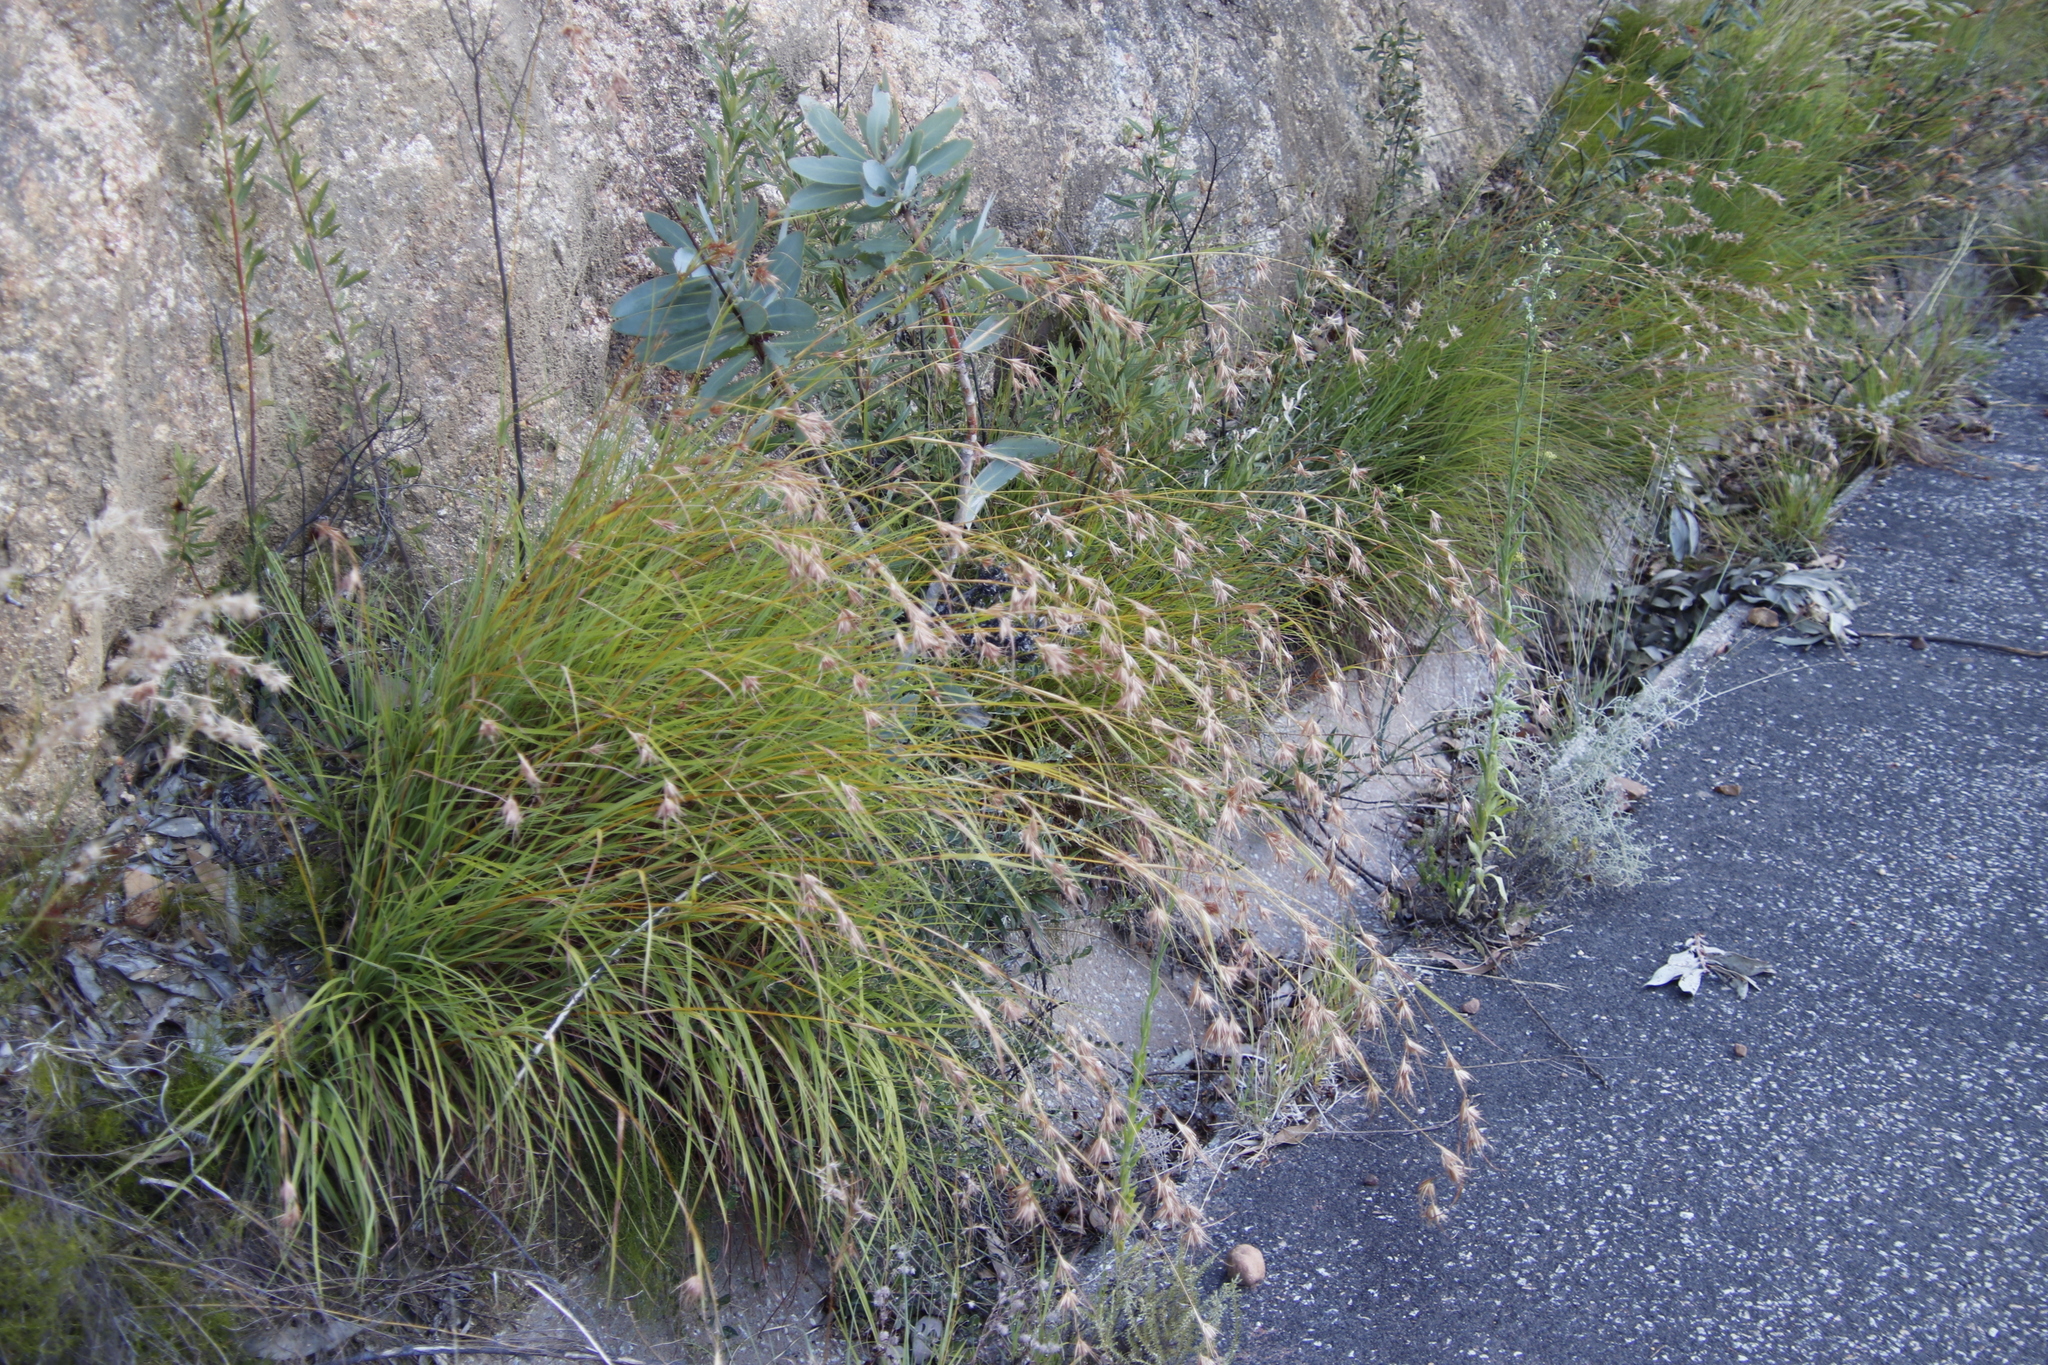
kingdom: Plantae
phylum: Tracheophyta
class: Liliopsida
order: Poales
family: Poaceae
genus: Themeda
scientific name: Themeda triandra
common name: Kangaroo grass
